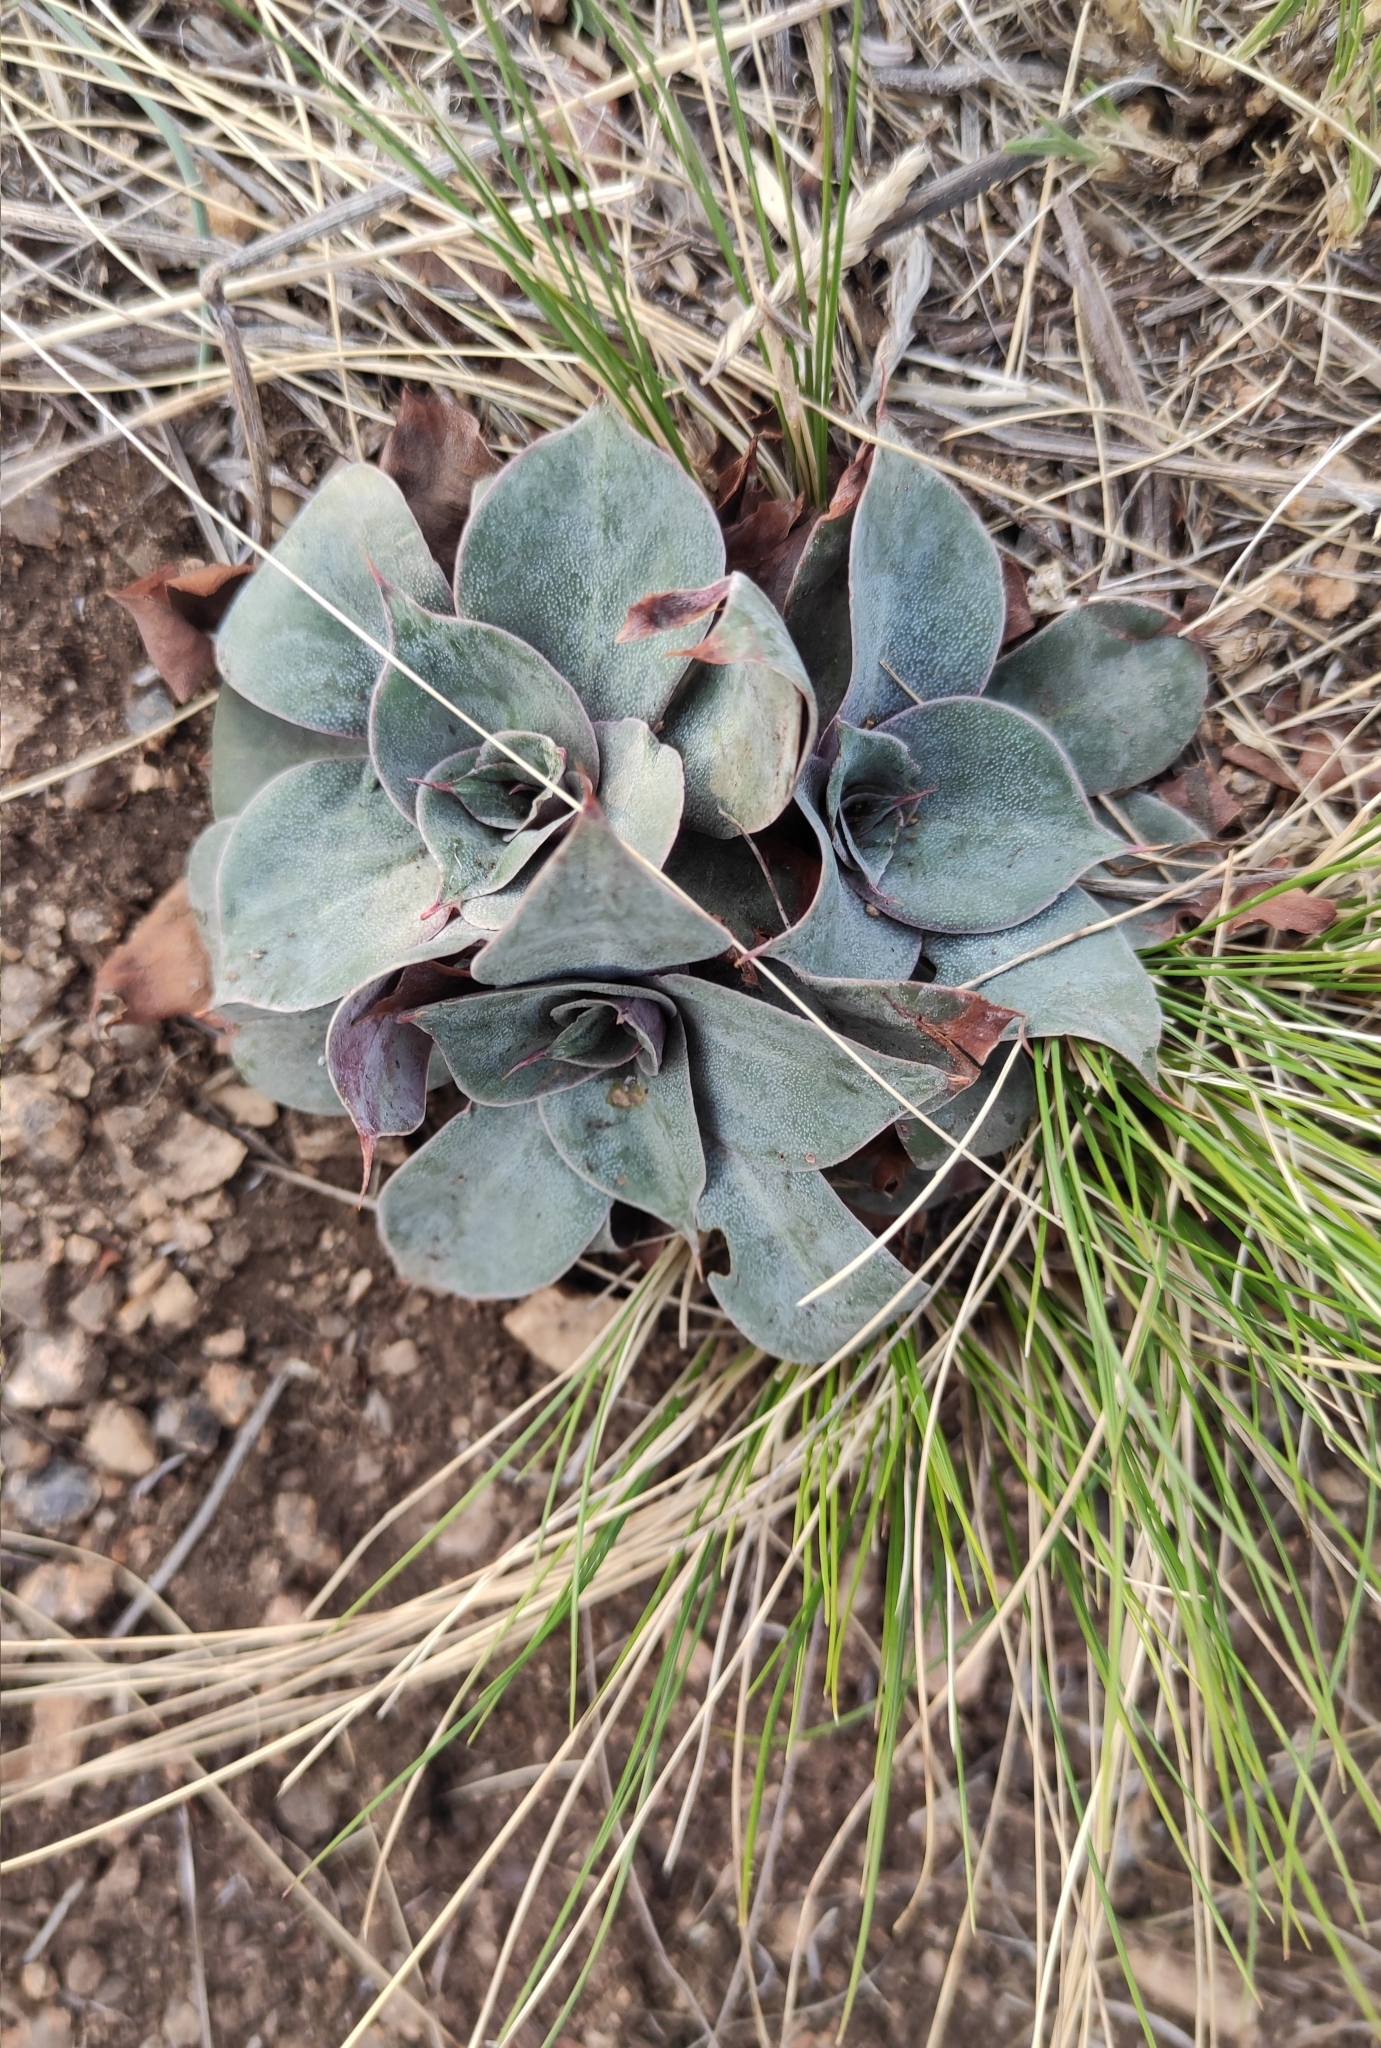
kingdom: Plantae
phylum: Tracheophyta
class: Magnoliopsida
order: Caryophyllales
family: Plumbaginaceae
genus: Goniolimon
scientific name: Goniolimon speciosum
